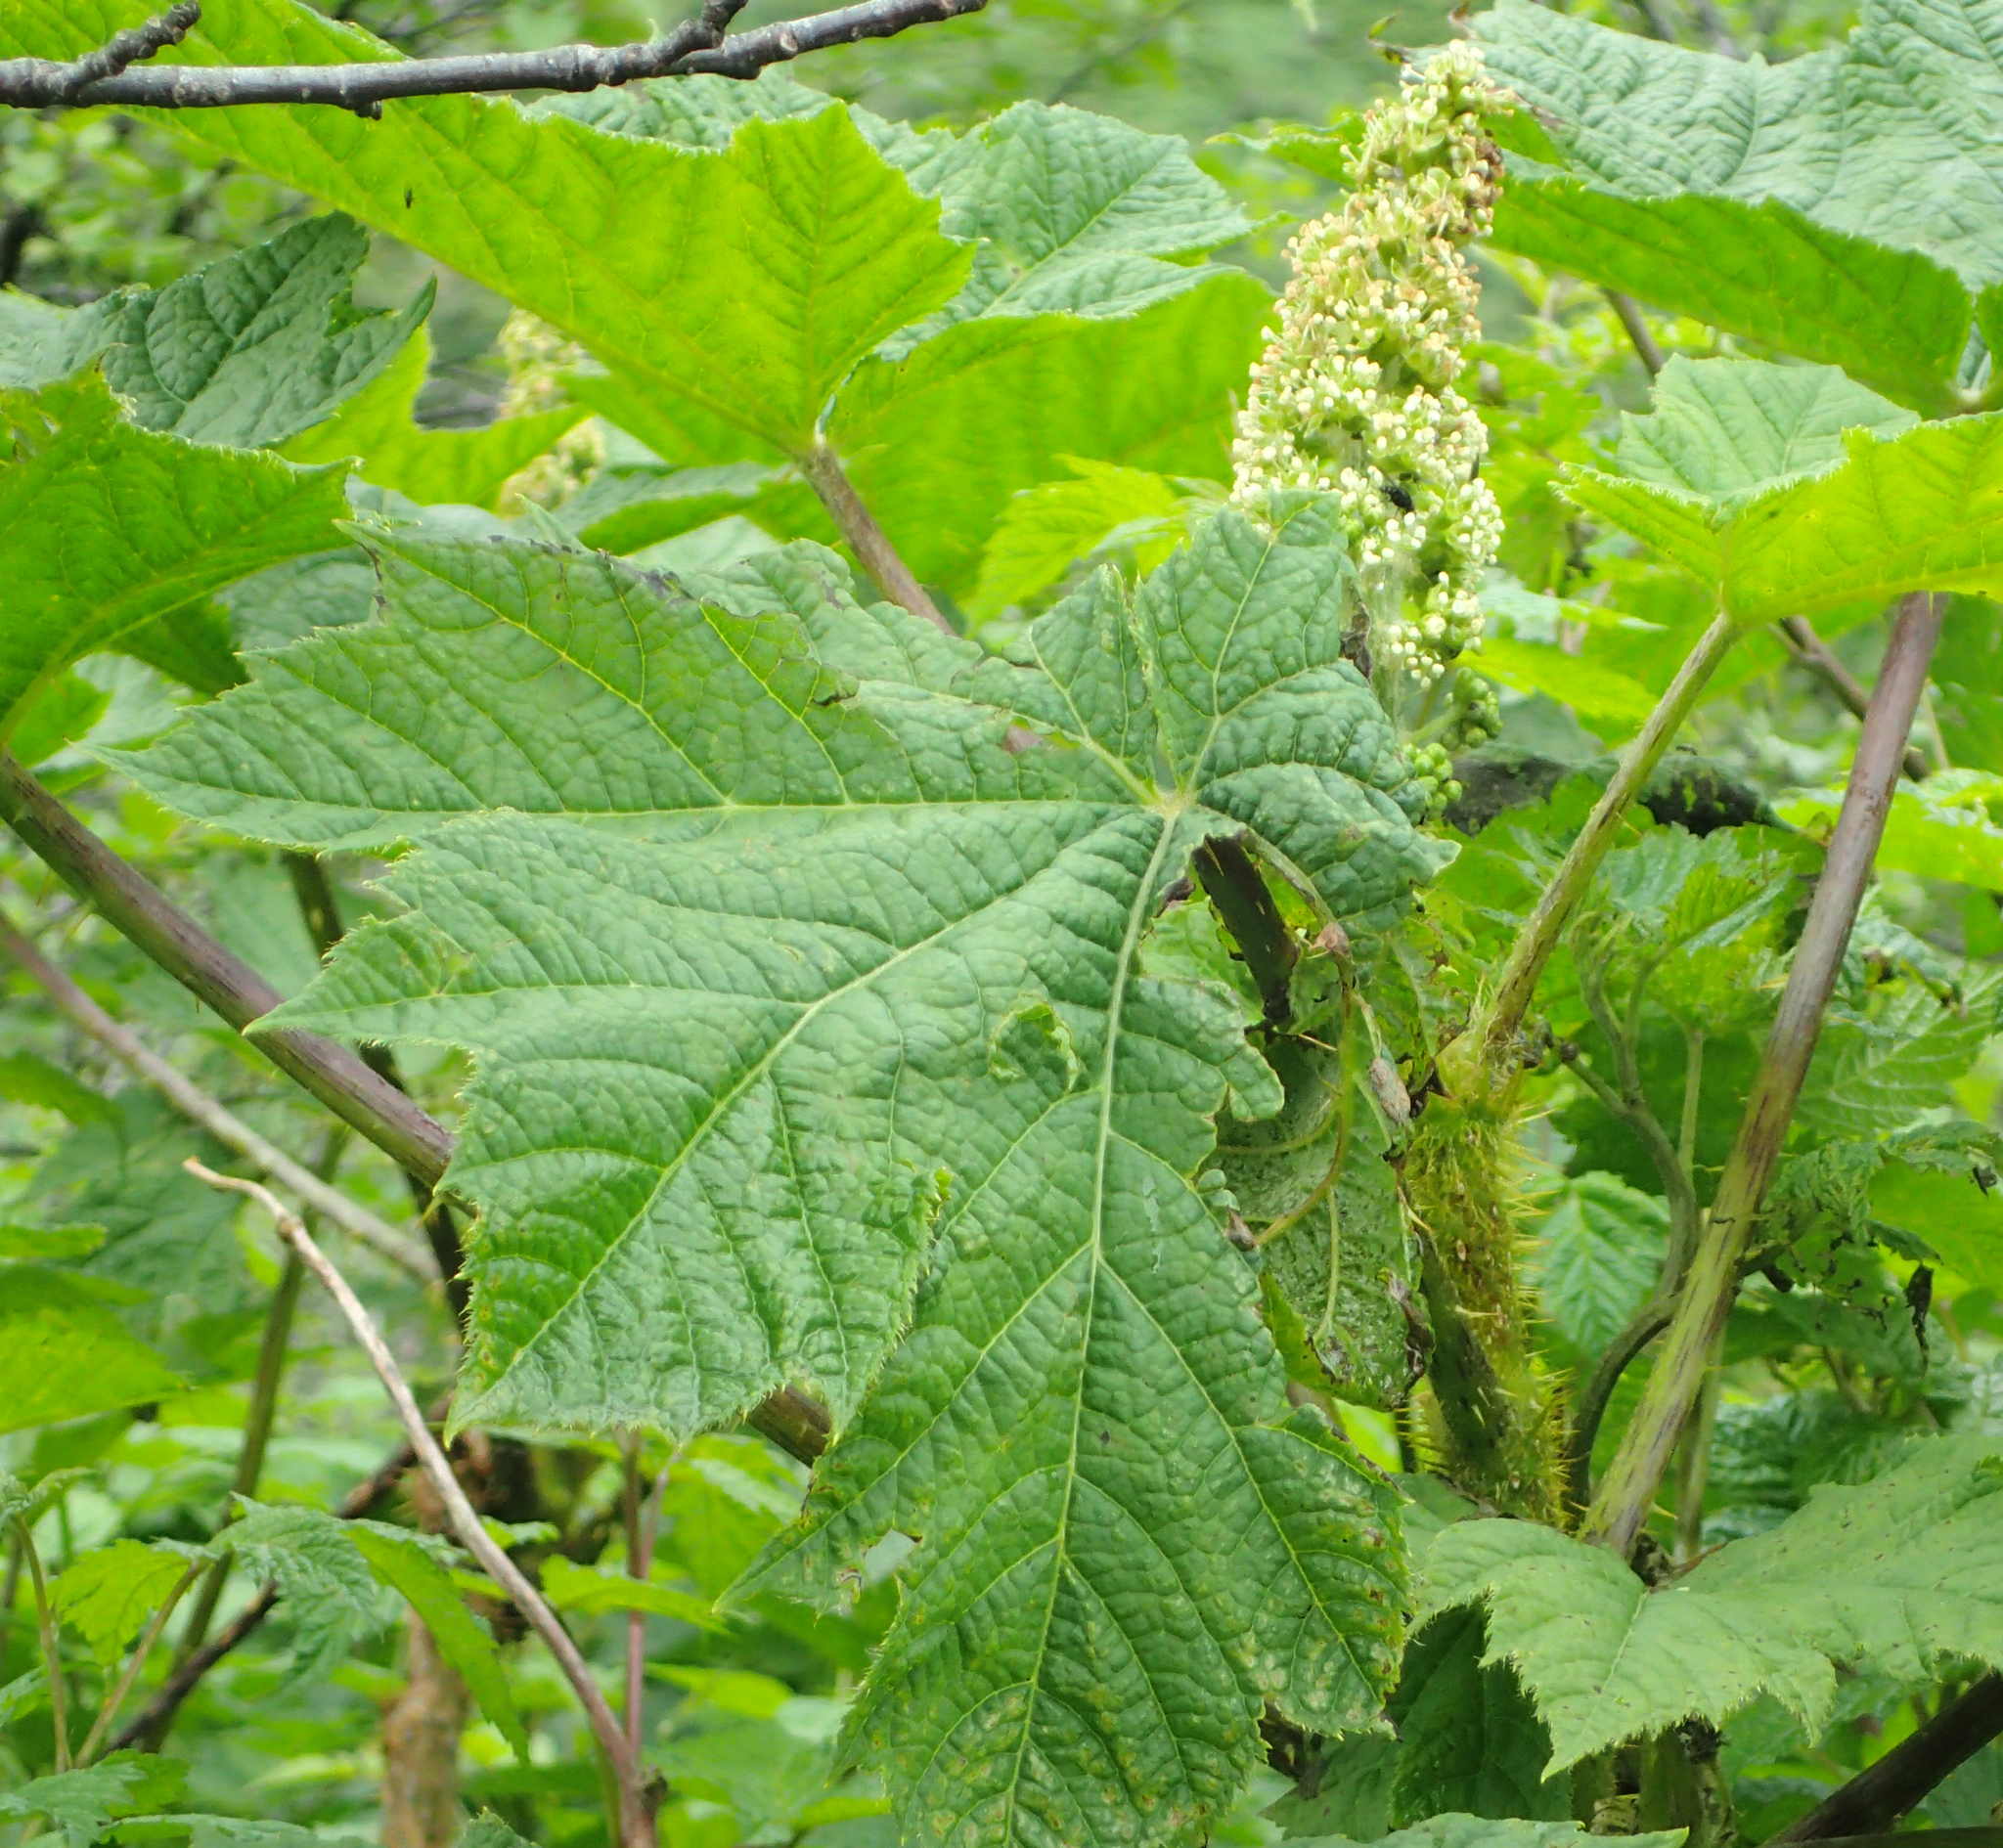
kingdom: Plantae
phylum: Tracheophyta
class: Magnoliopsida
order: Apiales
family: Araliaceae
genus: Oplopanax
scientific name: Oplopanax horridus
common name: Devil's walking-stick
